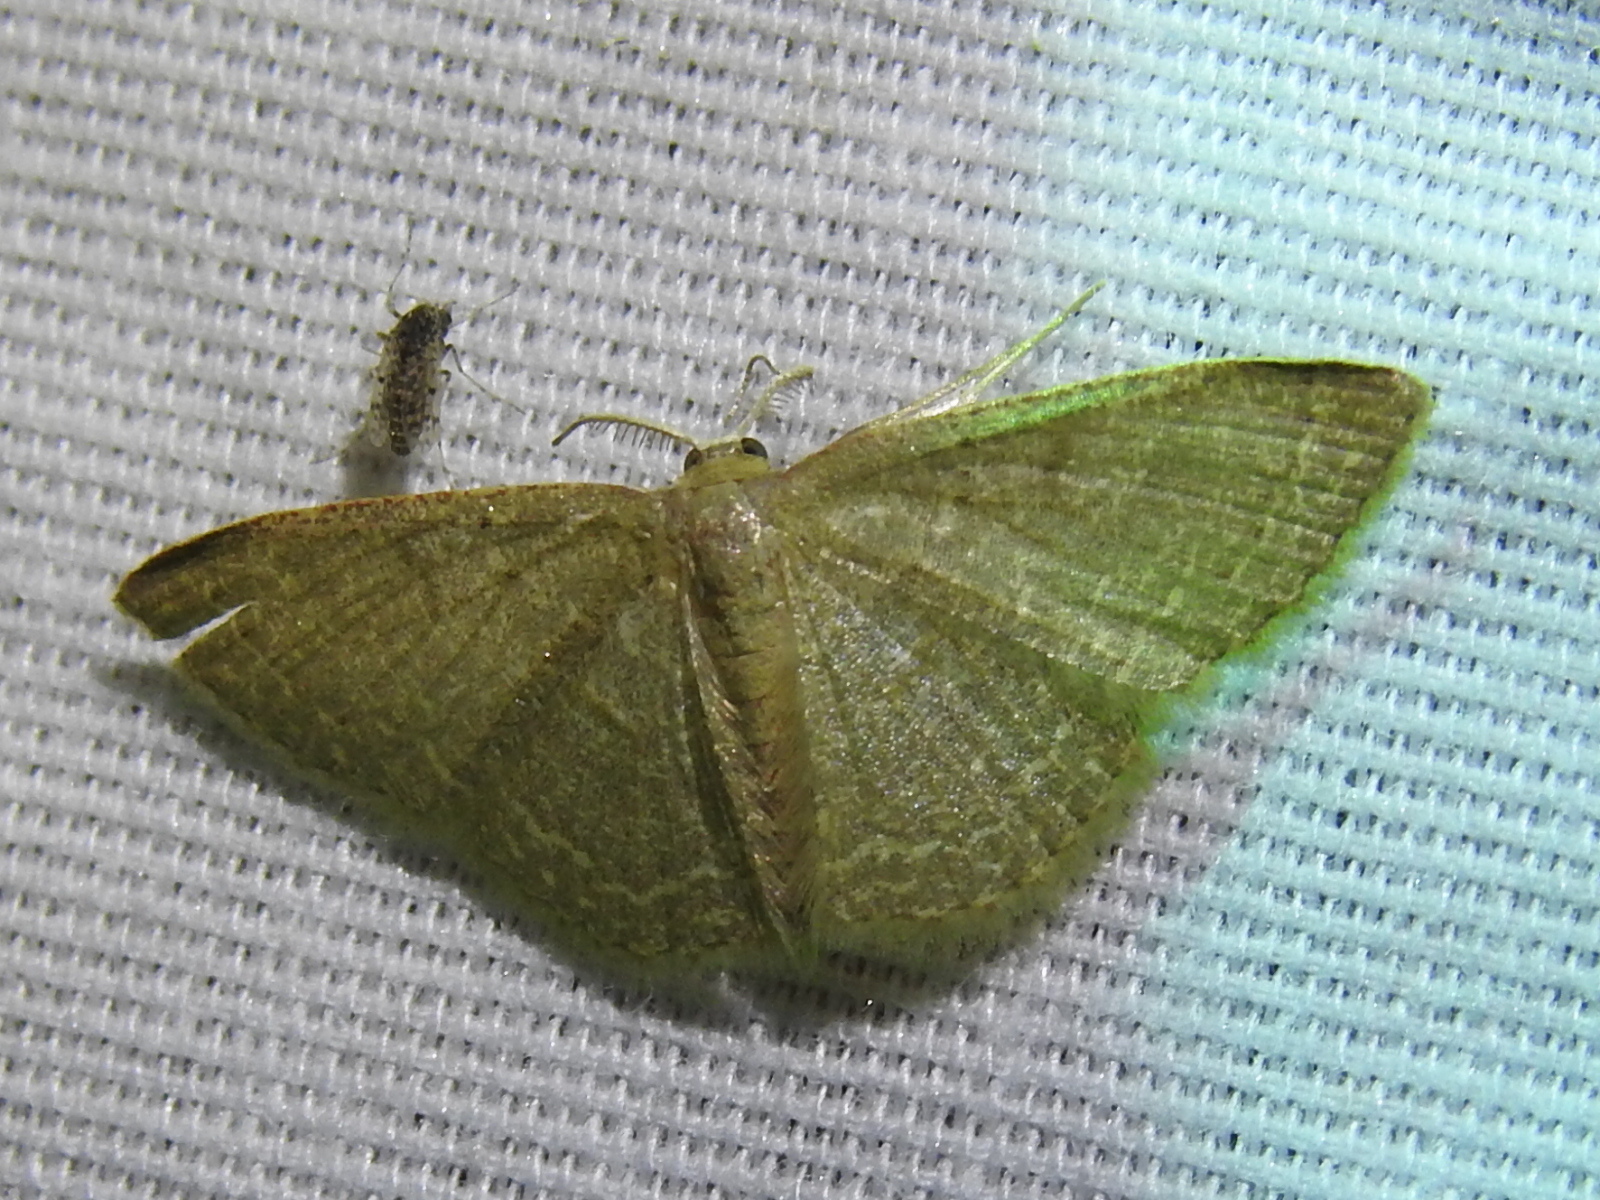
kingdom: Animalia
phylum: Arthropoda
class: Insecta
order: Lepidoptera
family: Geometridae
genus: Pleuroprucha
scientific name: Pleuroprucha insulsaria
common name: Common tan wave
